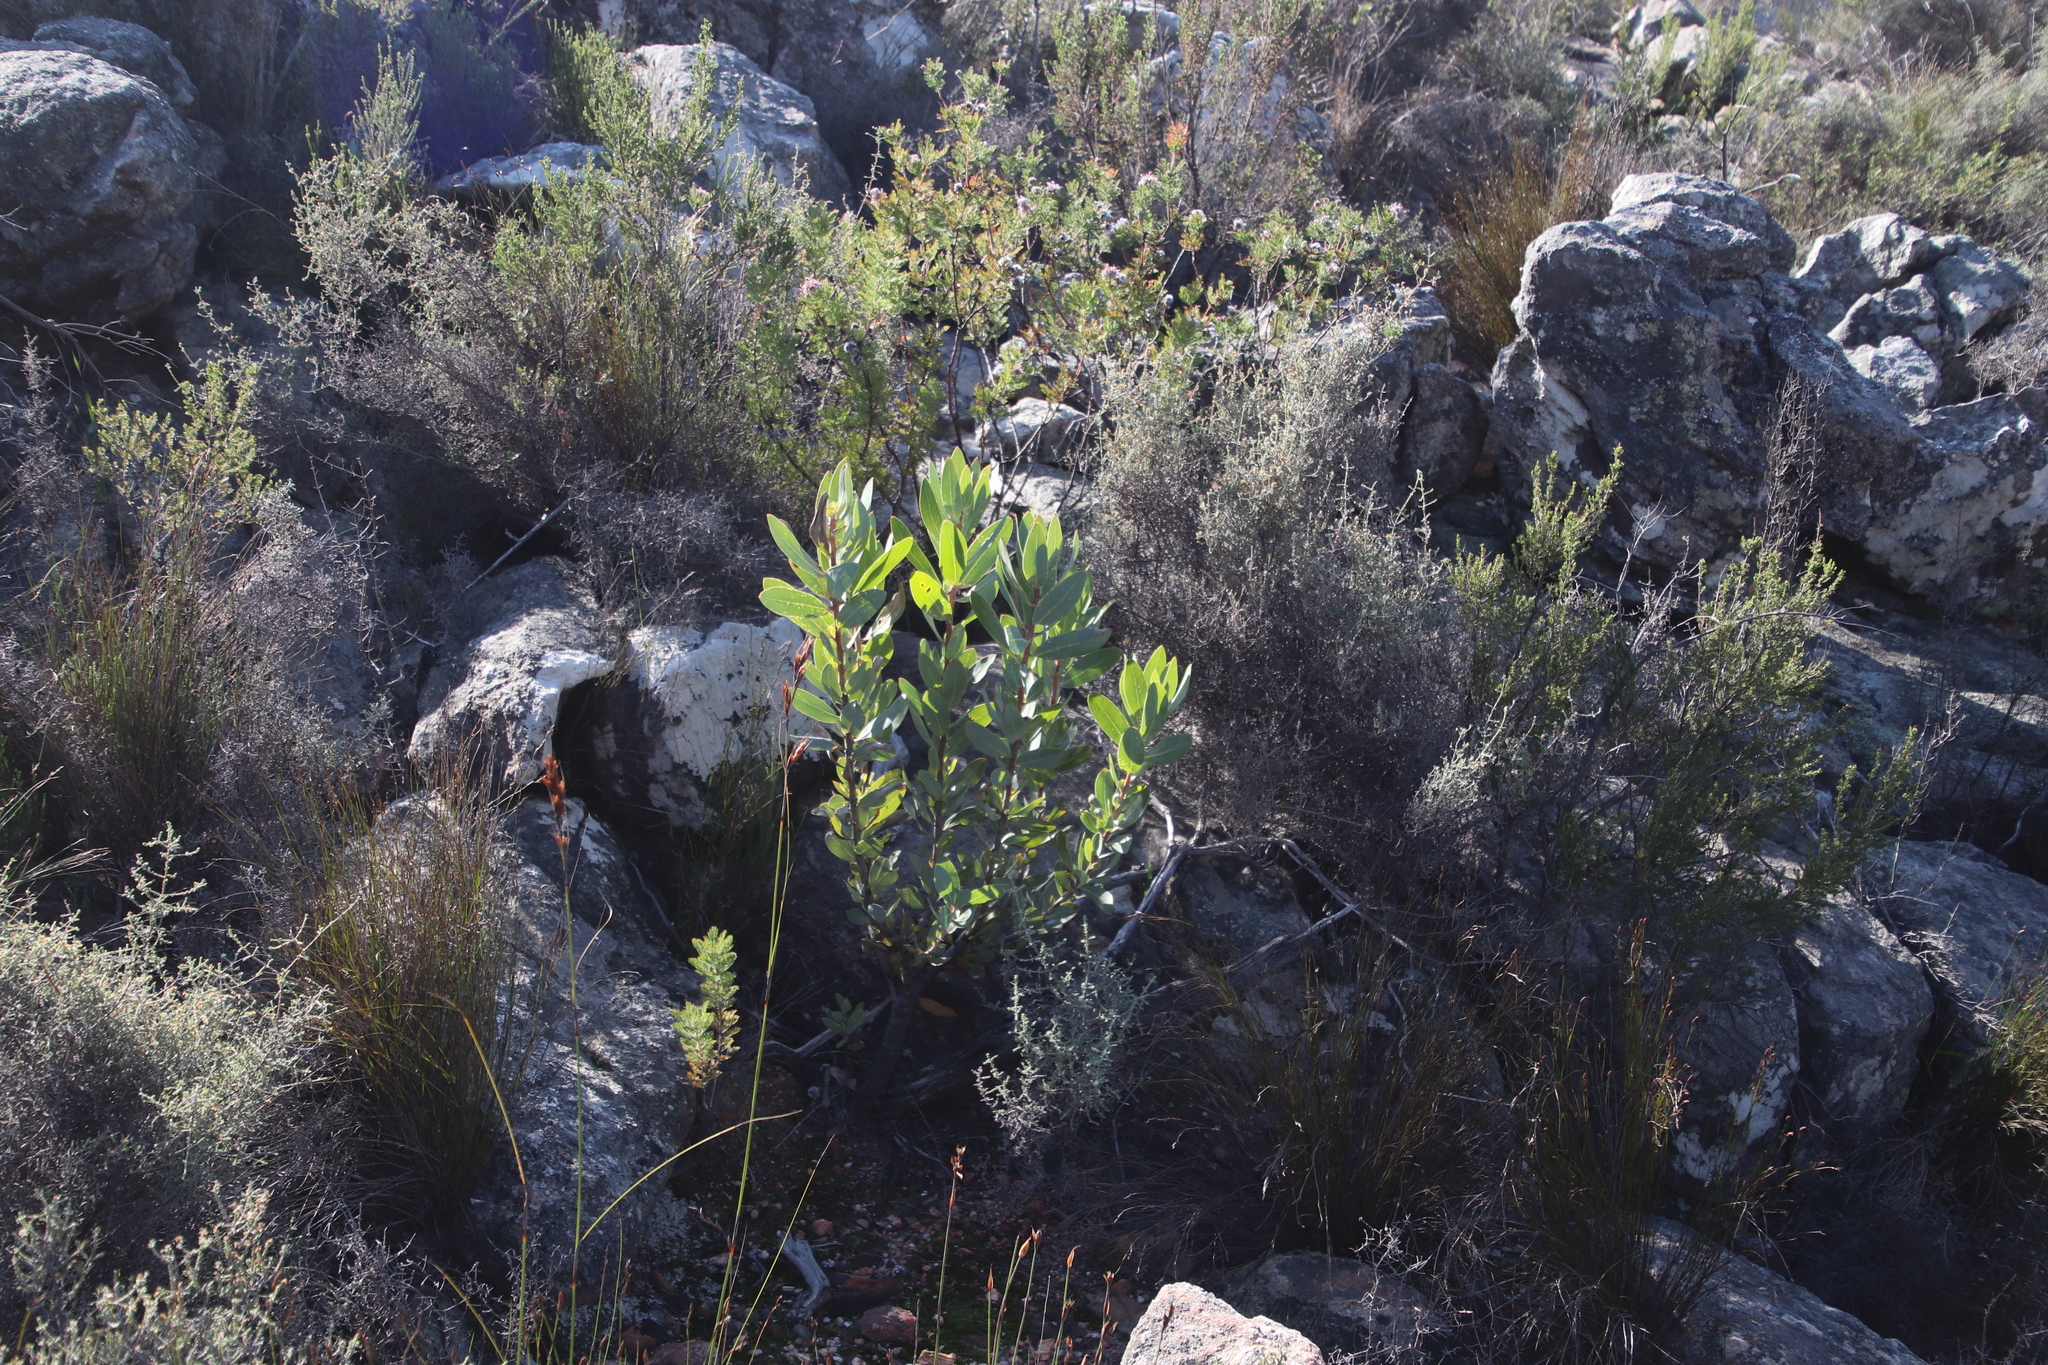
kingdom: Plantae
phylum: Tracheophyta
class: Magnoliopsida
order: Proteales
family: Proteaceae
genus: Protea
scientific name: Protea laurifolia
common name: Grey-leaf sugarbsh
